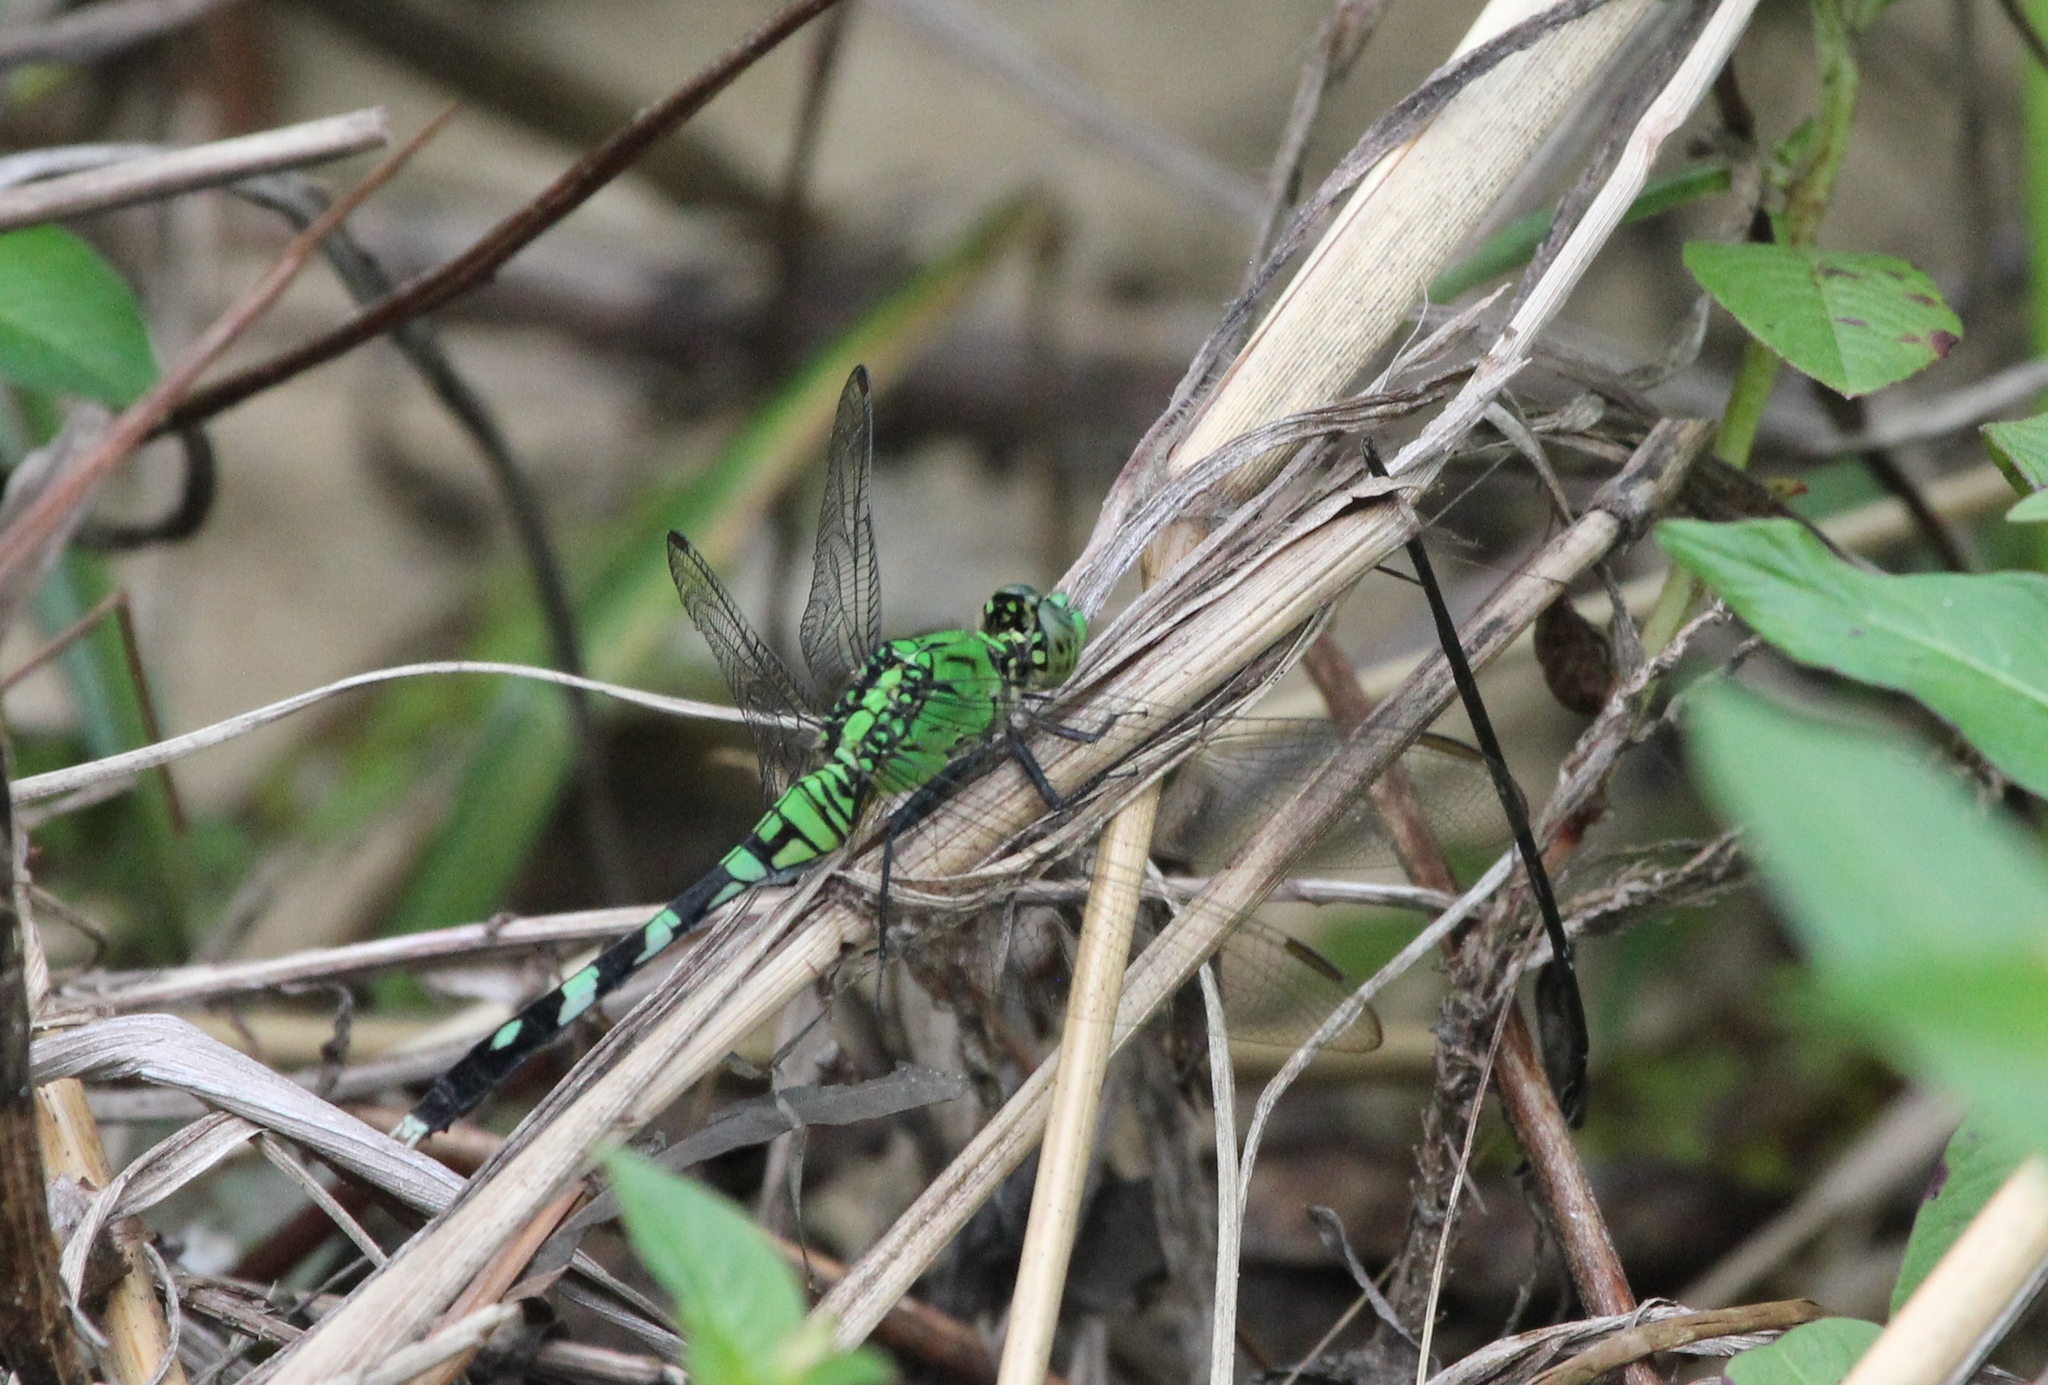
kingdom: Animalia
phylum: Arthropoda
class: Insecta
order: Odonata
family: Libellulidae
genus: Erythemis
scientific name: Erythemis simplicicollis
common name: Eastern pondhawk
